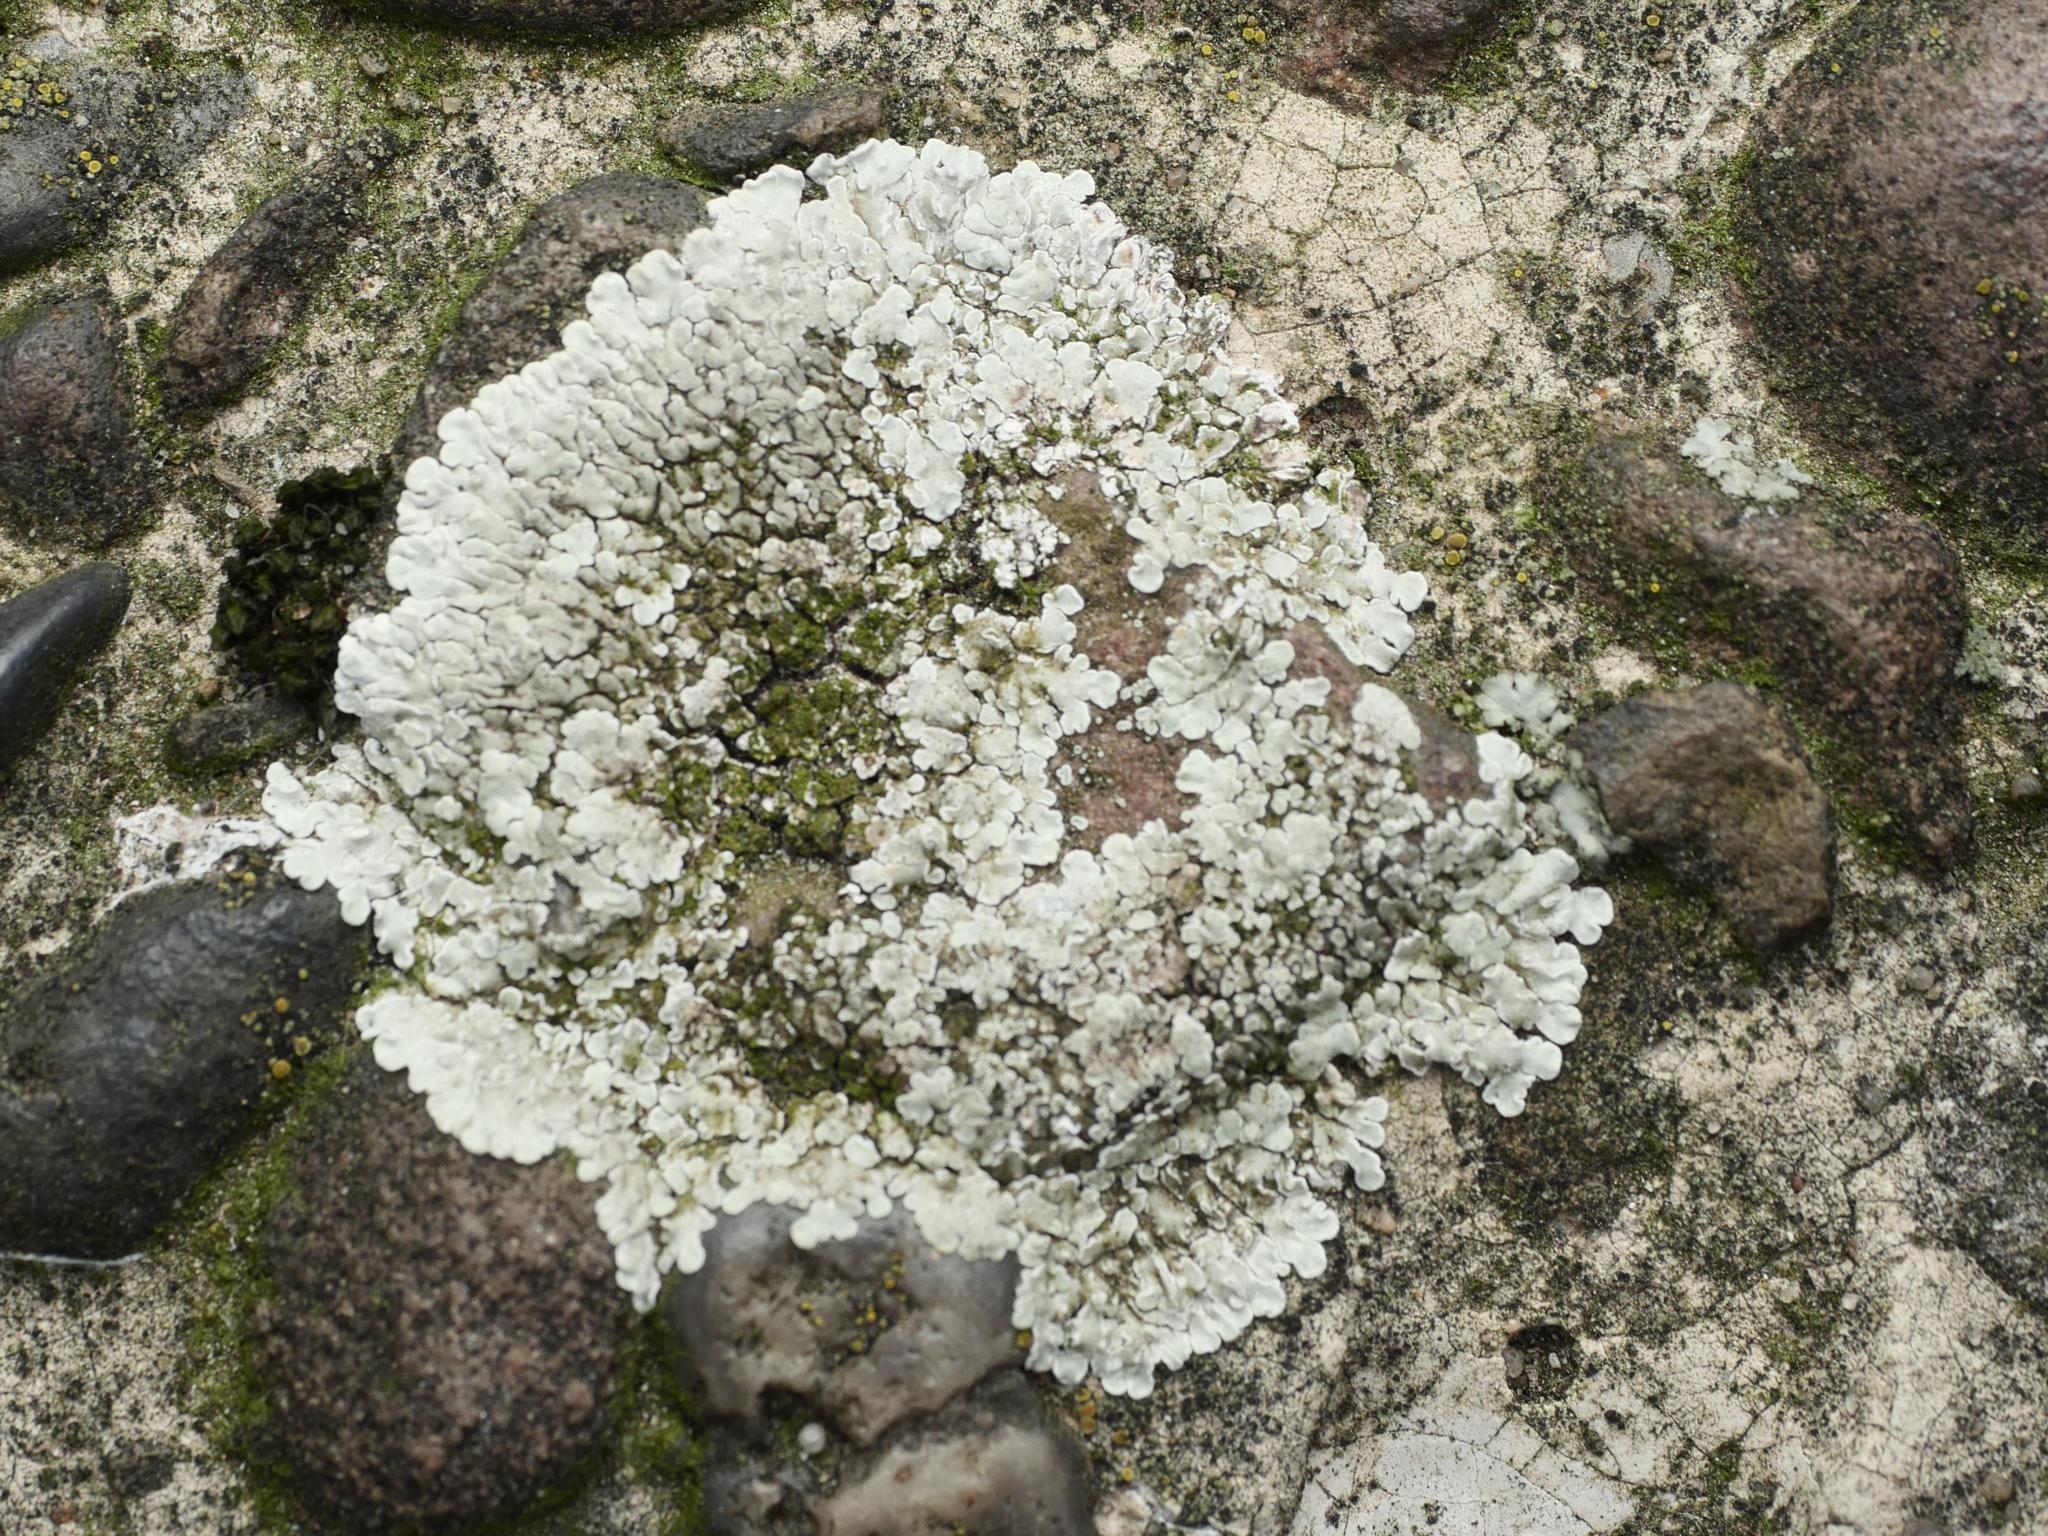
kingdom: Fungi
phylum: Ascomycota
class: Lecanoromycetes
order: Lecanorales
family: Lecanoraceae
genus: Protoparmeliopsis
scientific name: Protoparmeliopsis muralis
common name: Stonewall rim lichen
